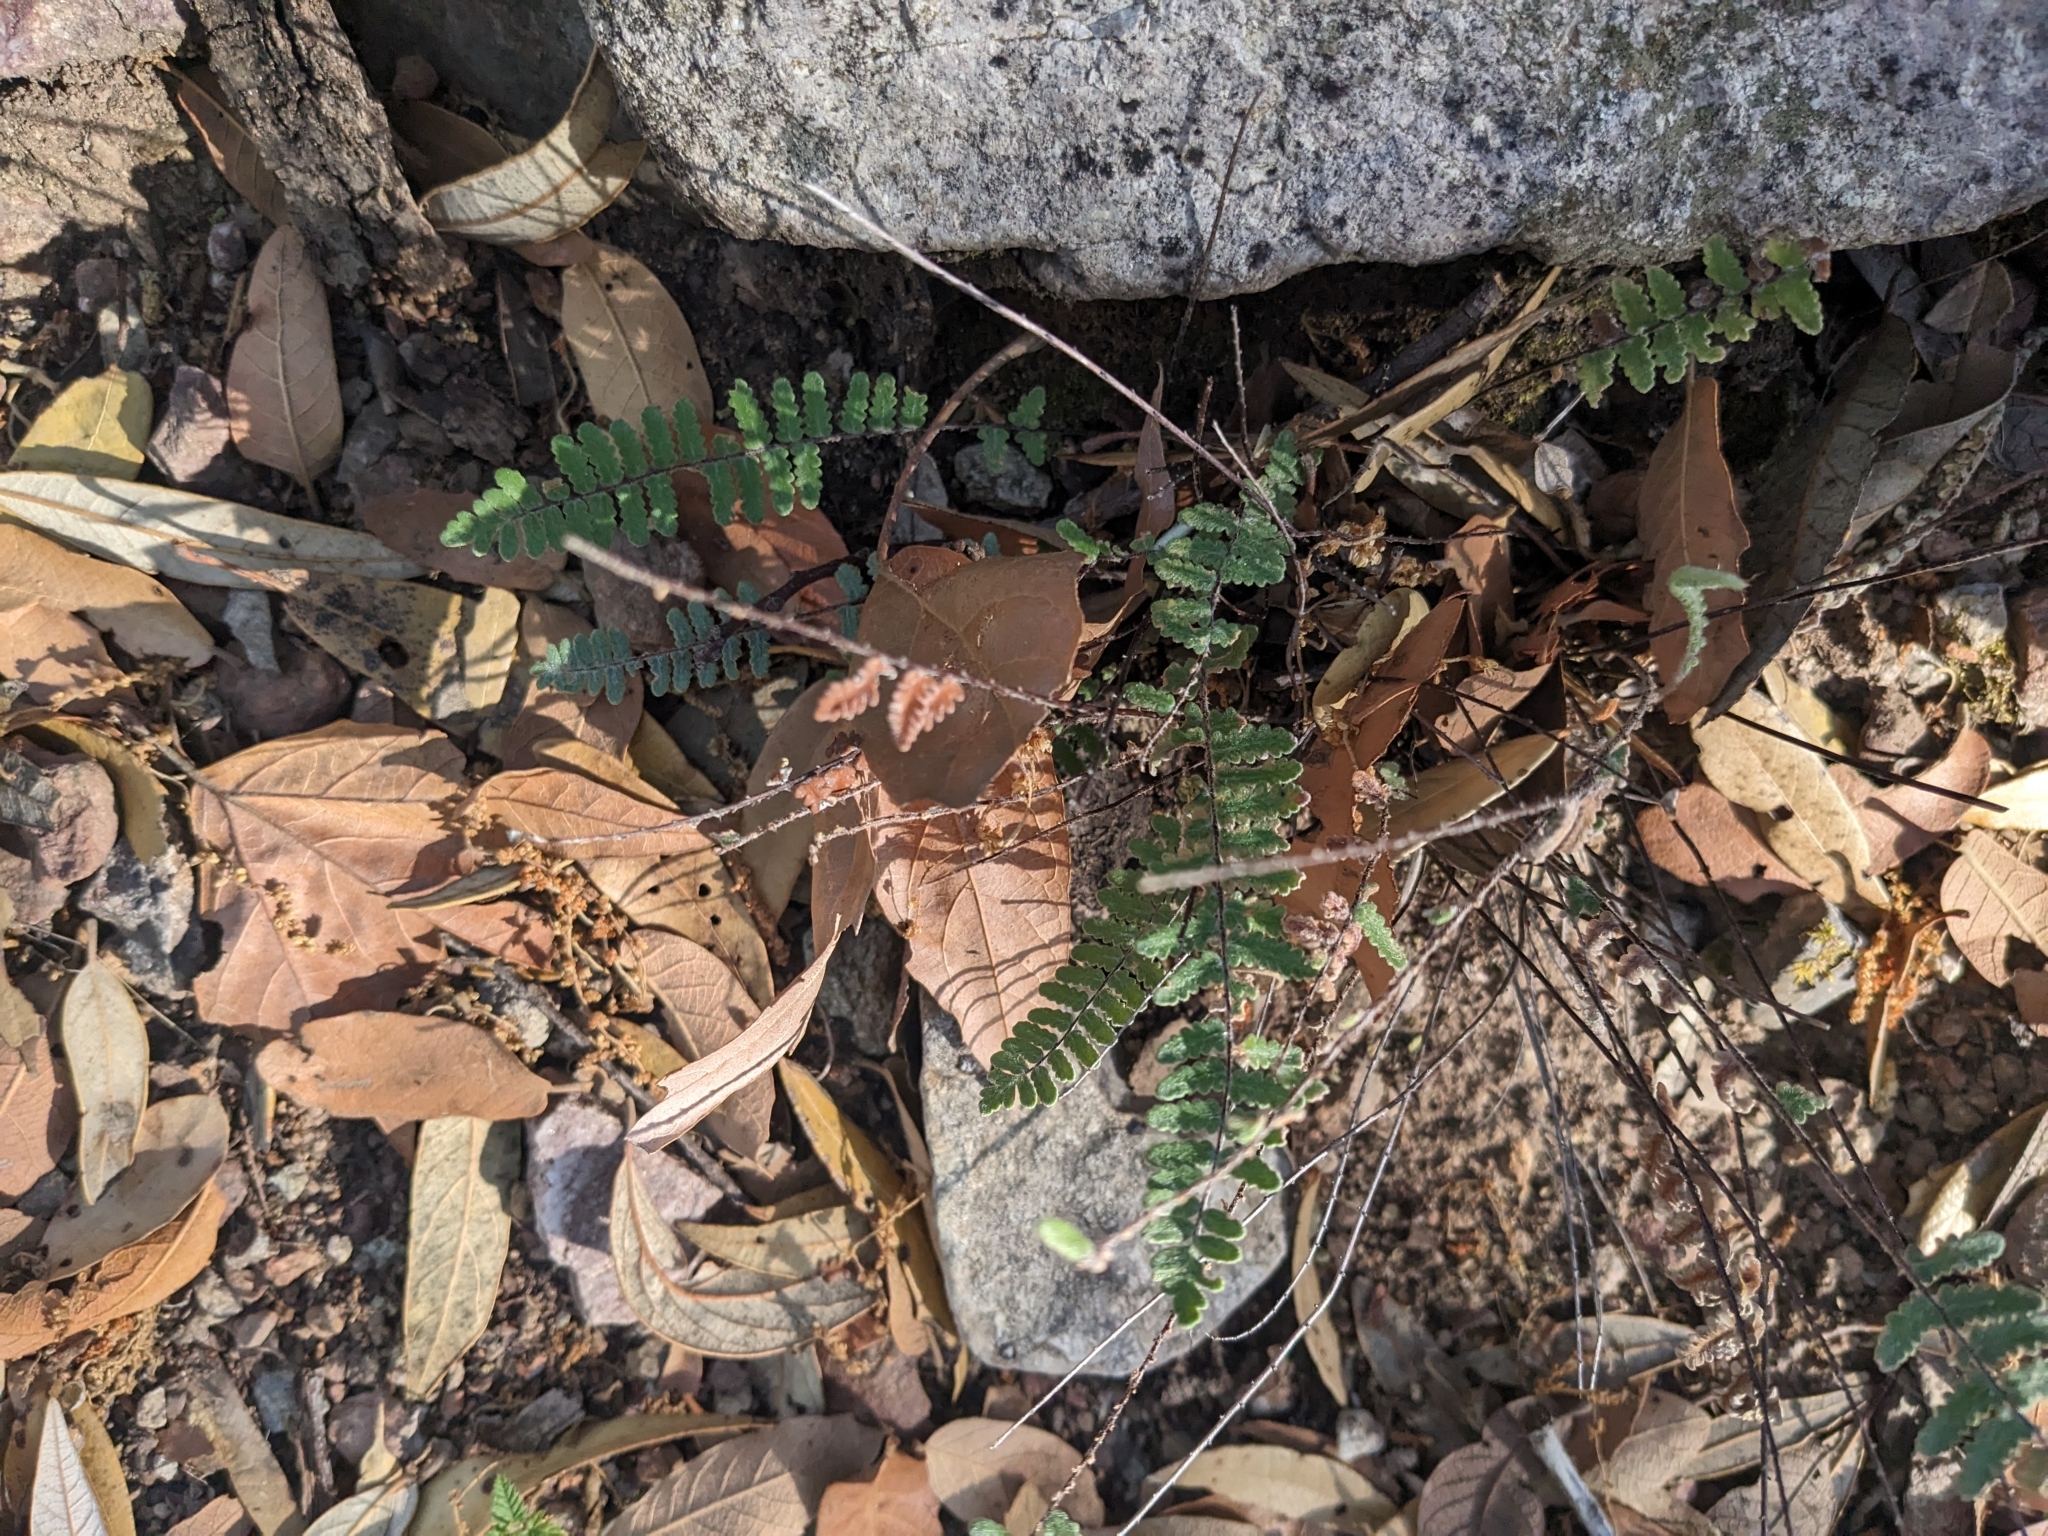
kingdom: Plantae
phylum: Tracheophyta
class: Polypodiopsida
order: Polypodiales
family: Pteridaceae
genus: Myriopteris
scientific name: Myriopteris aurea
